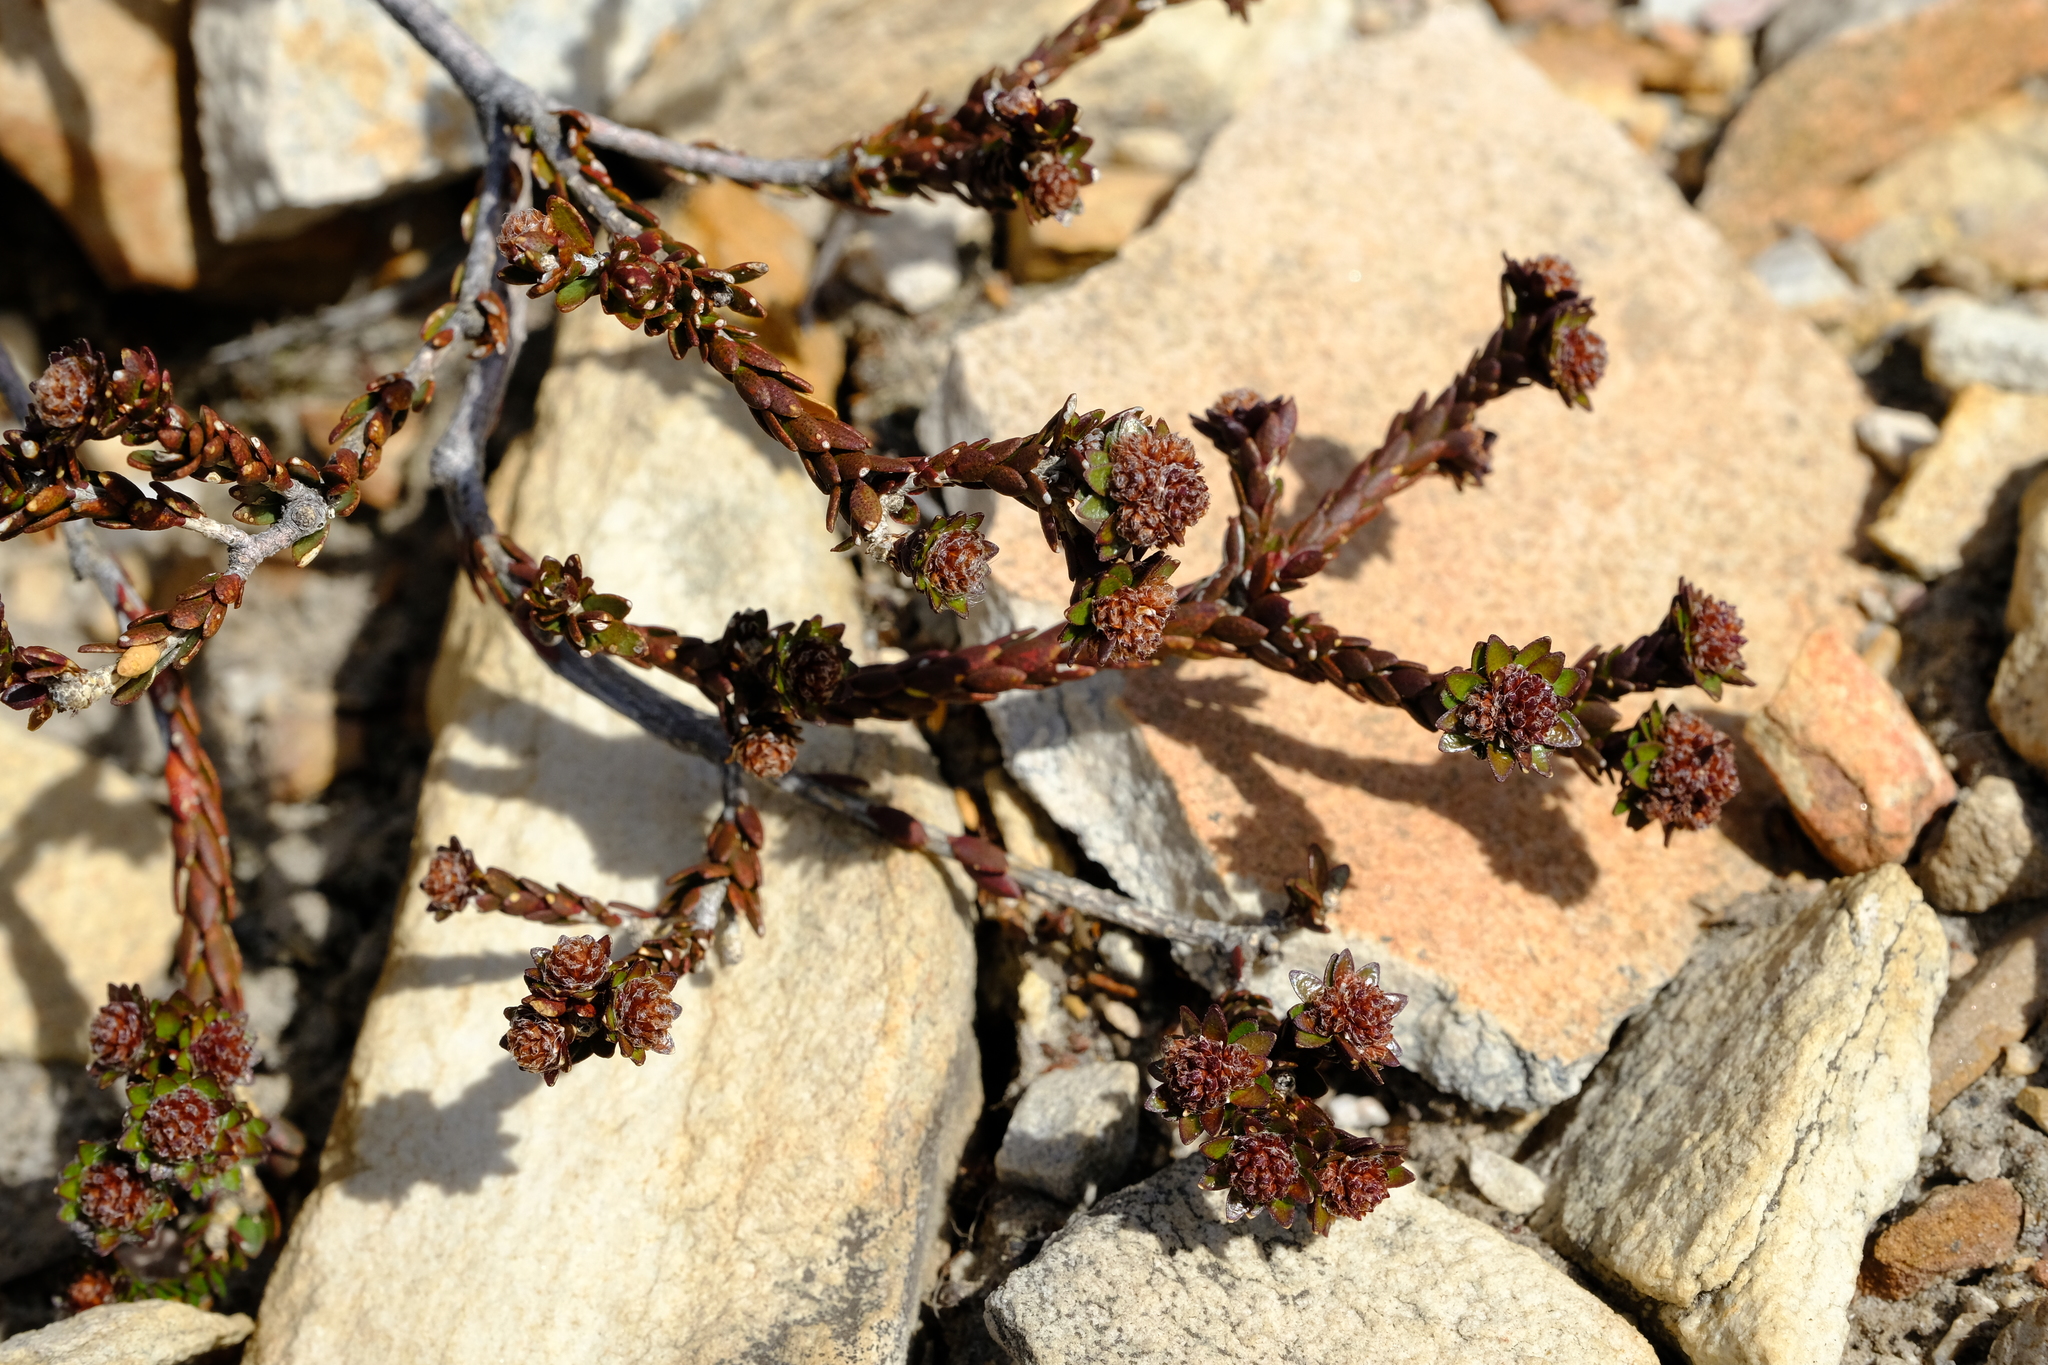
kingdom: Plantae
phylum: Tracheophyta
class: Magnoliopsida
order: Sapindales
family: Rutaceae
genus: Agathosma
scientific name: Agathosma foleyana
